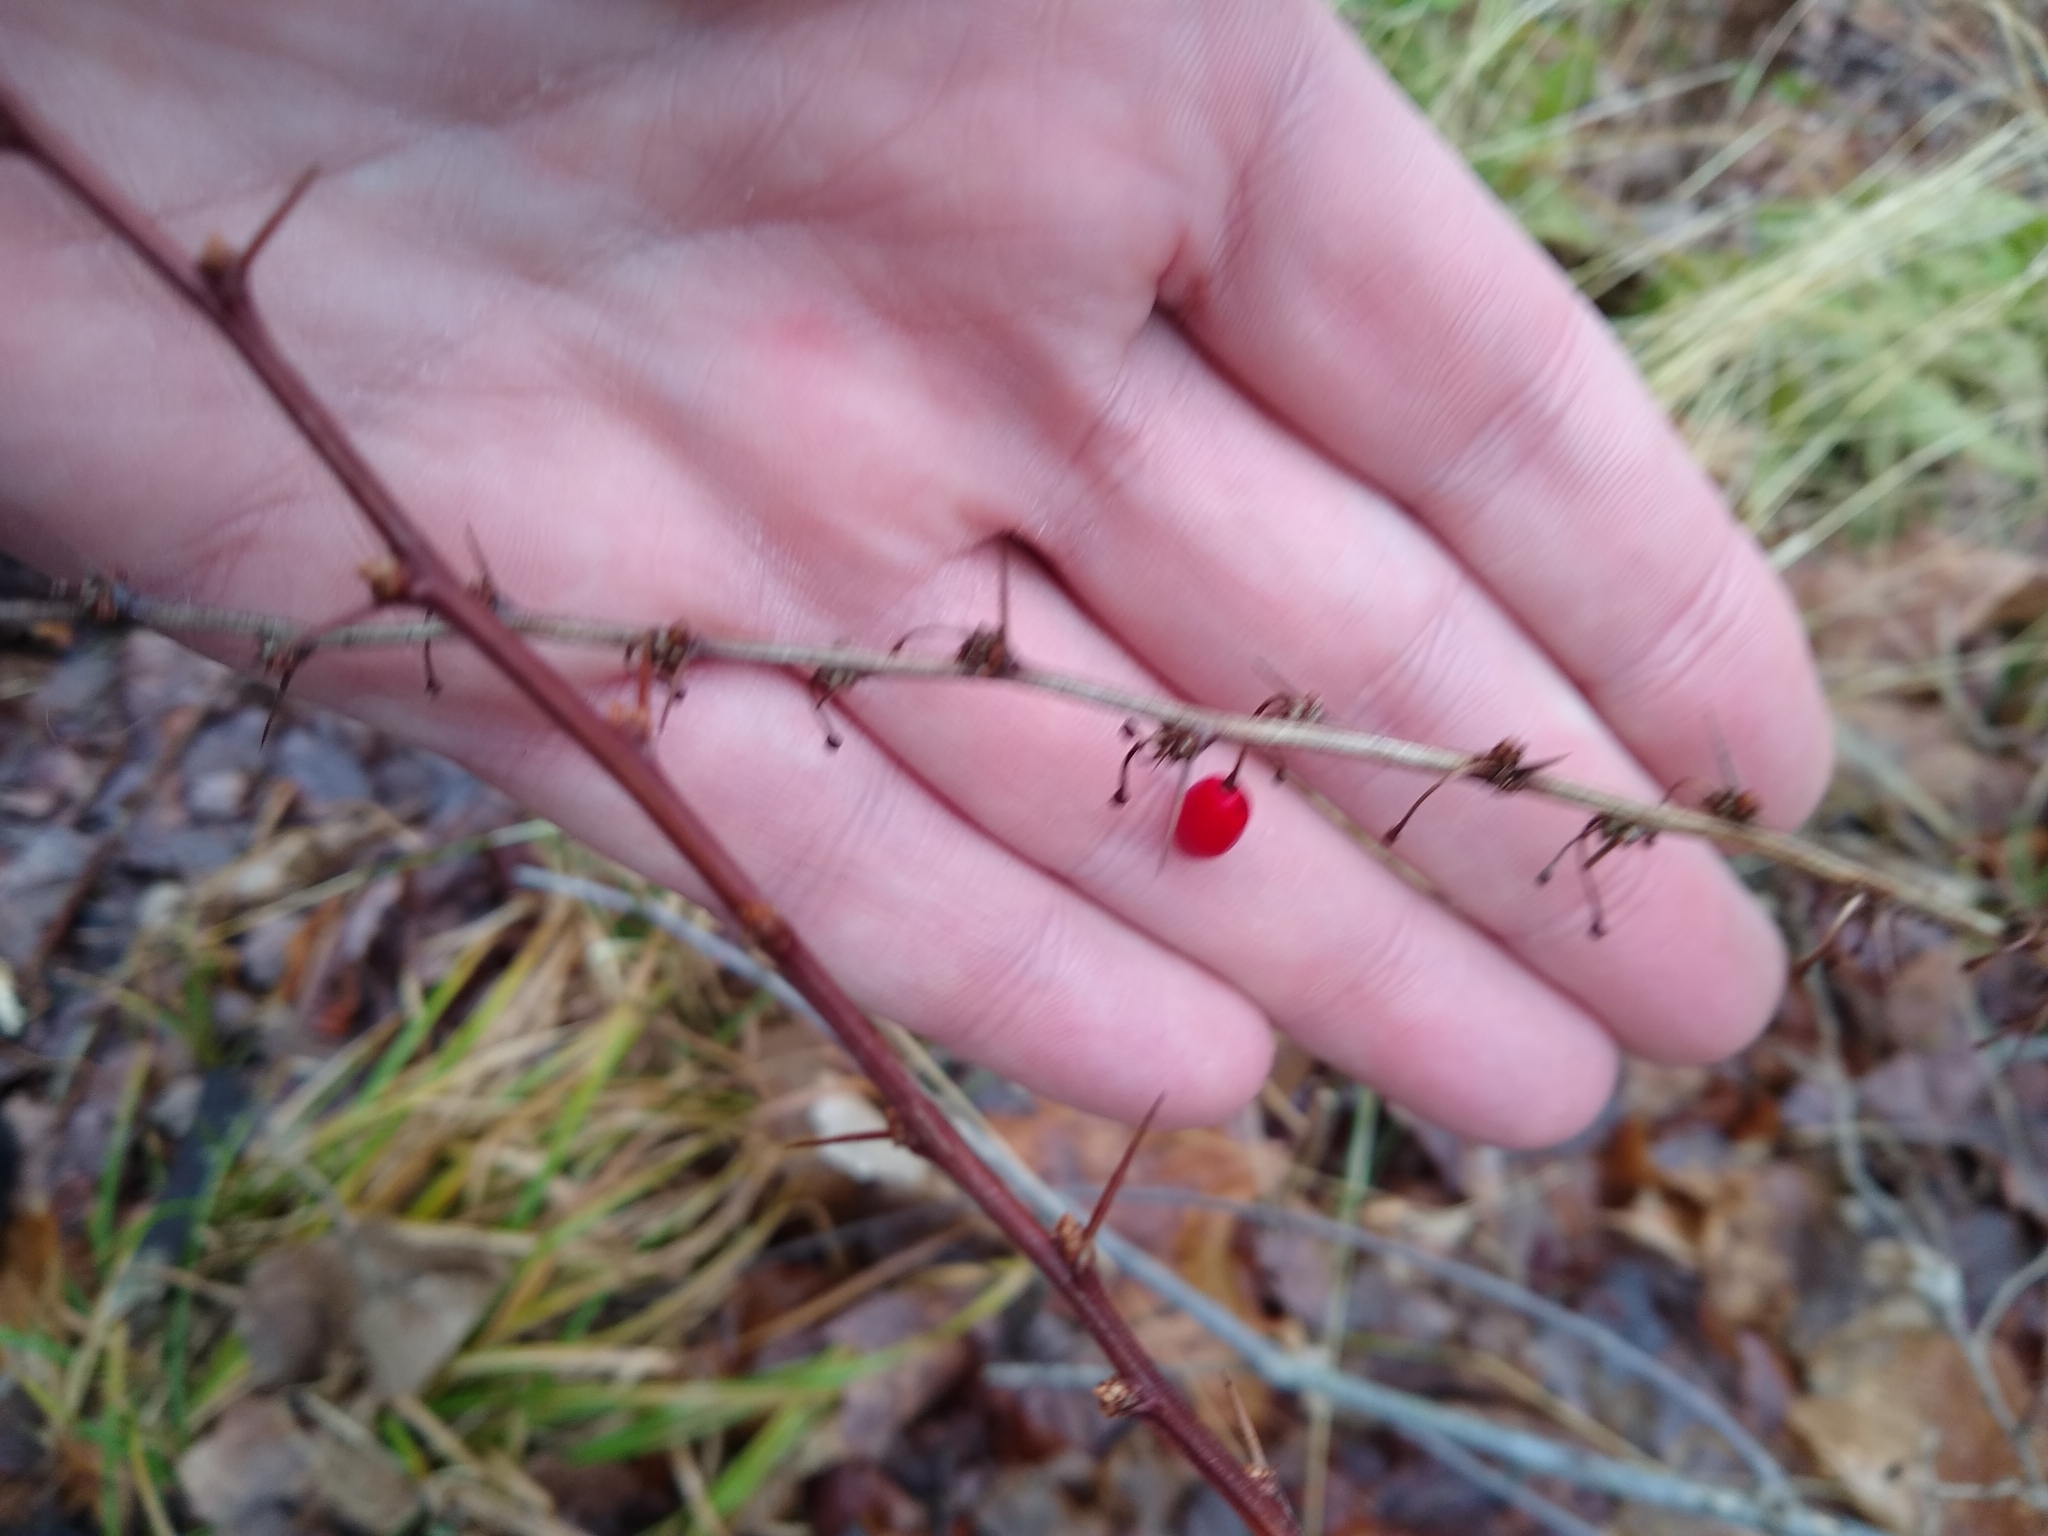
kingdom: Plantae
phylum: Tracheophyta
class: Magnoliopsida
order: Ranunculales
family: Berberidaceae
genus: Berberis
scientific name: Berberis thunbergii
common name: Japanese barberry
